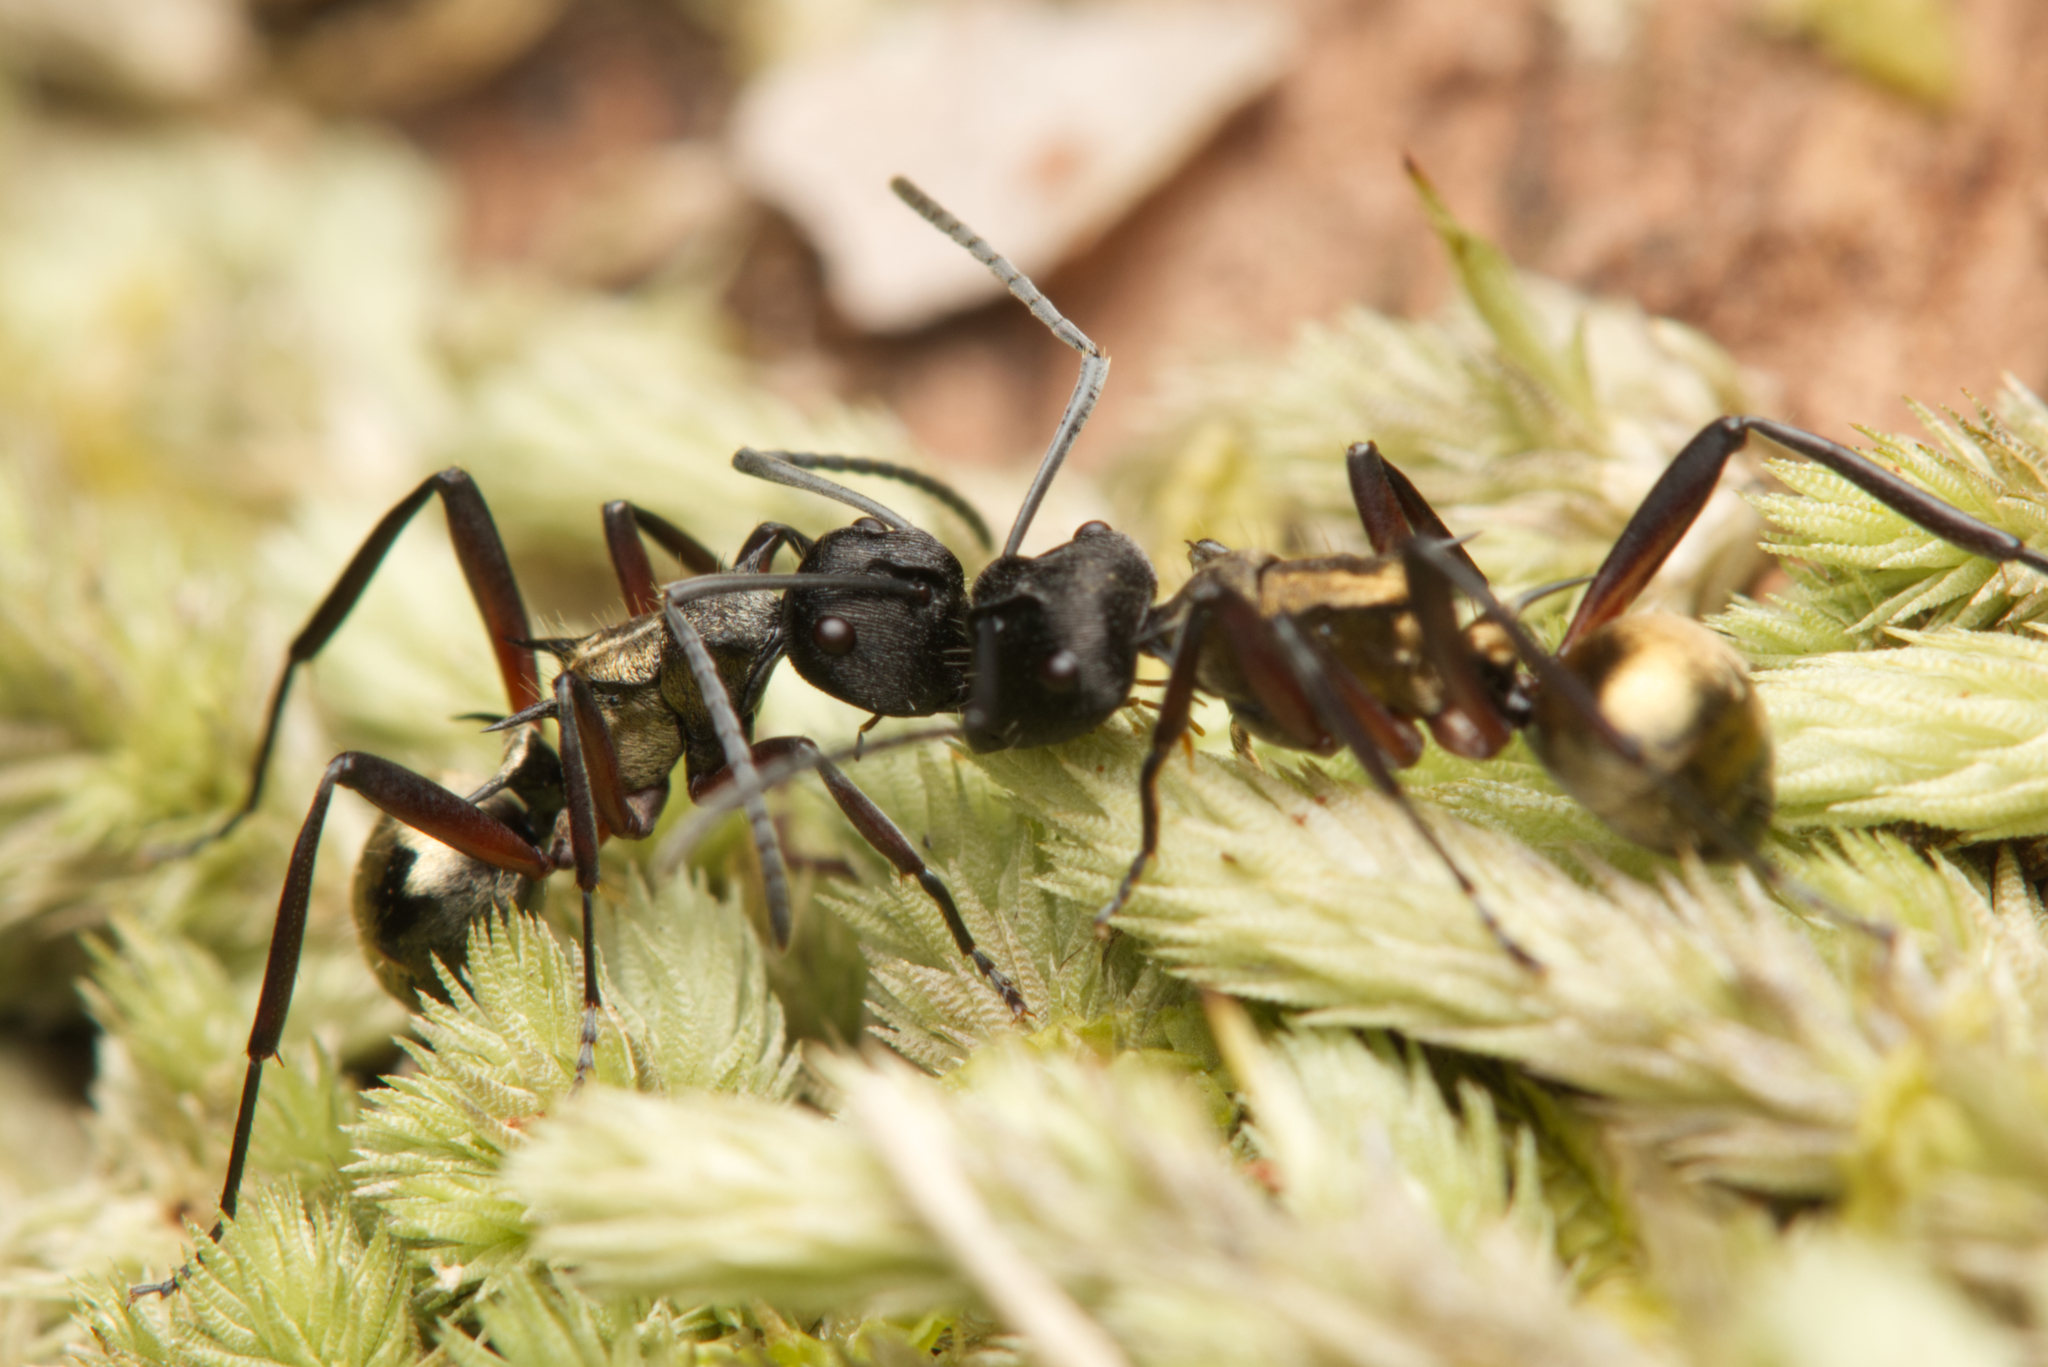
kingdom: Animalia
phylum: Arthropoda
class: Insecta
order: Hymenoptera
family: Formicidae
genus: Polyrhachis
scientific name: Polyrhachis rufifemur
